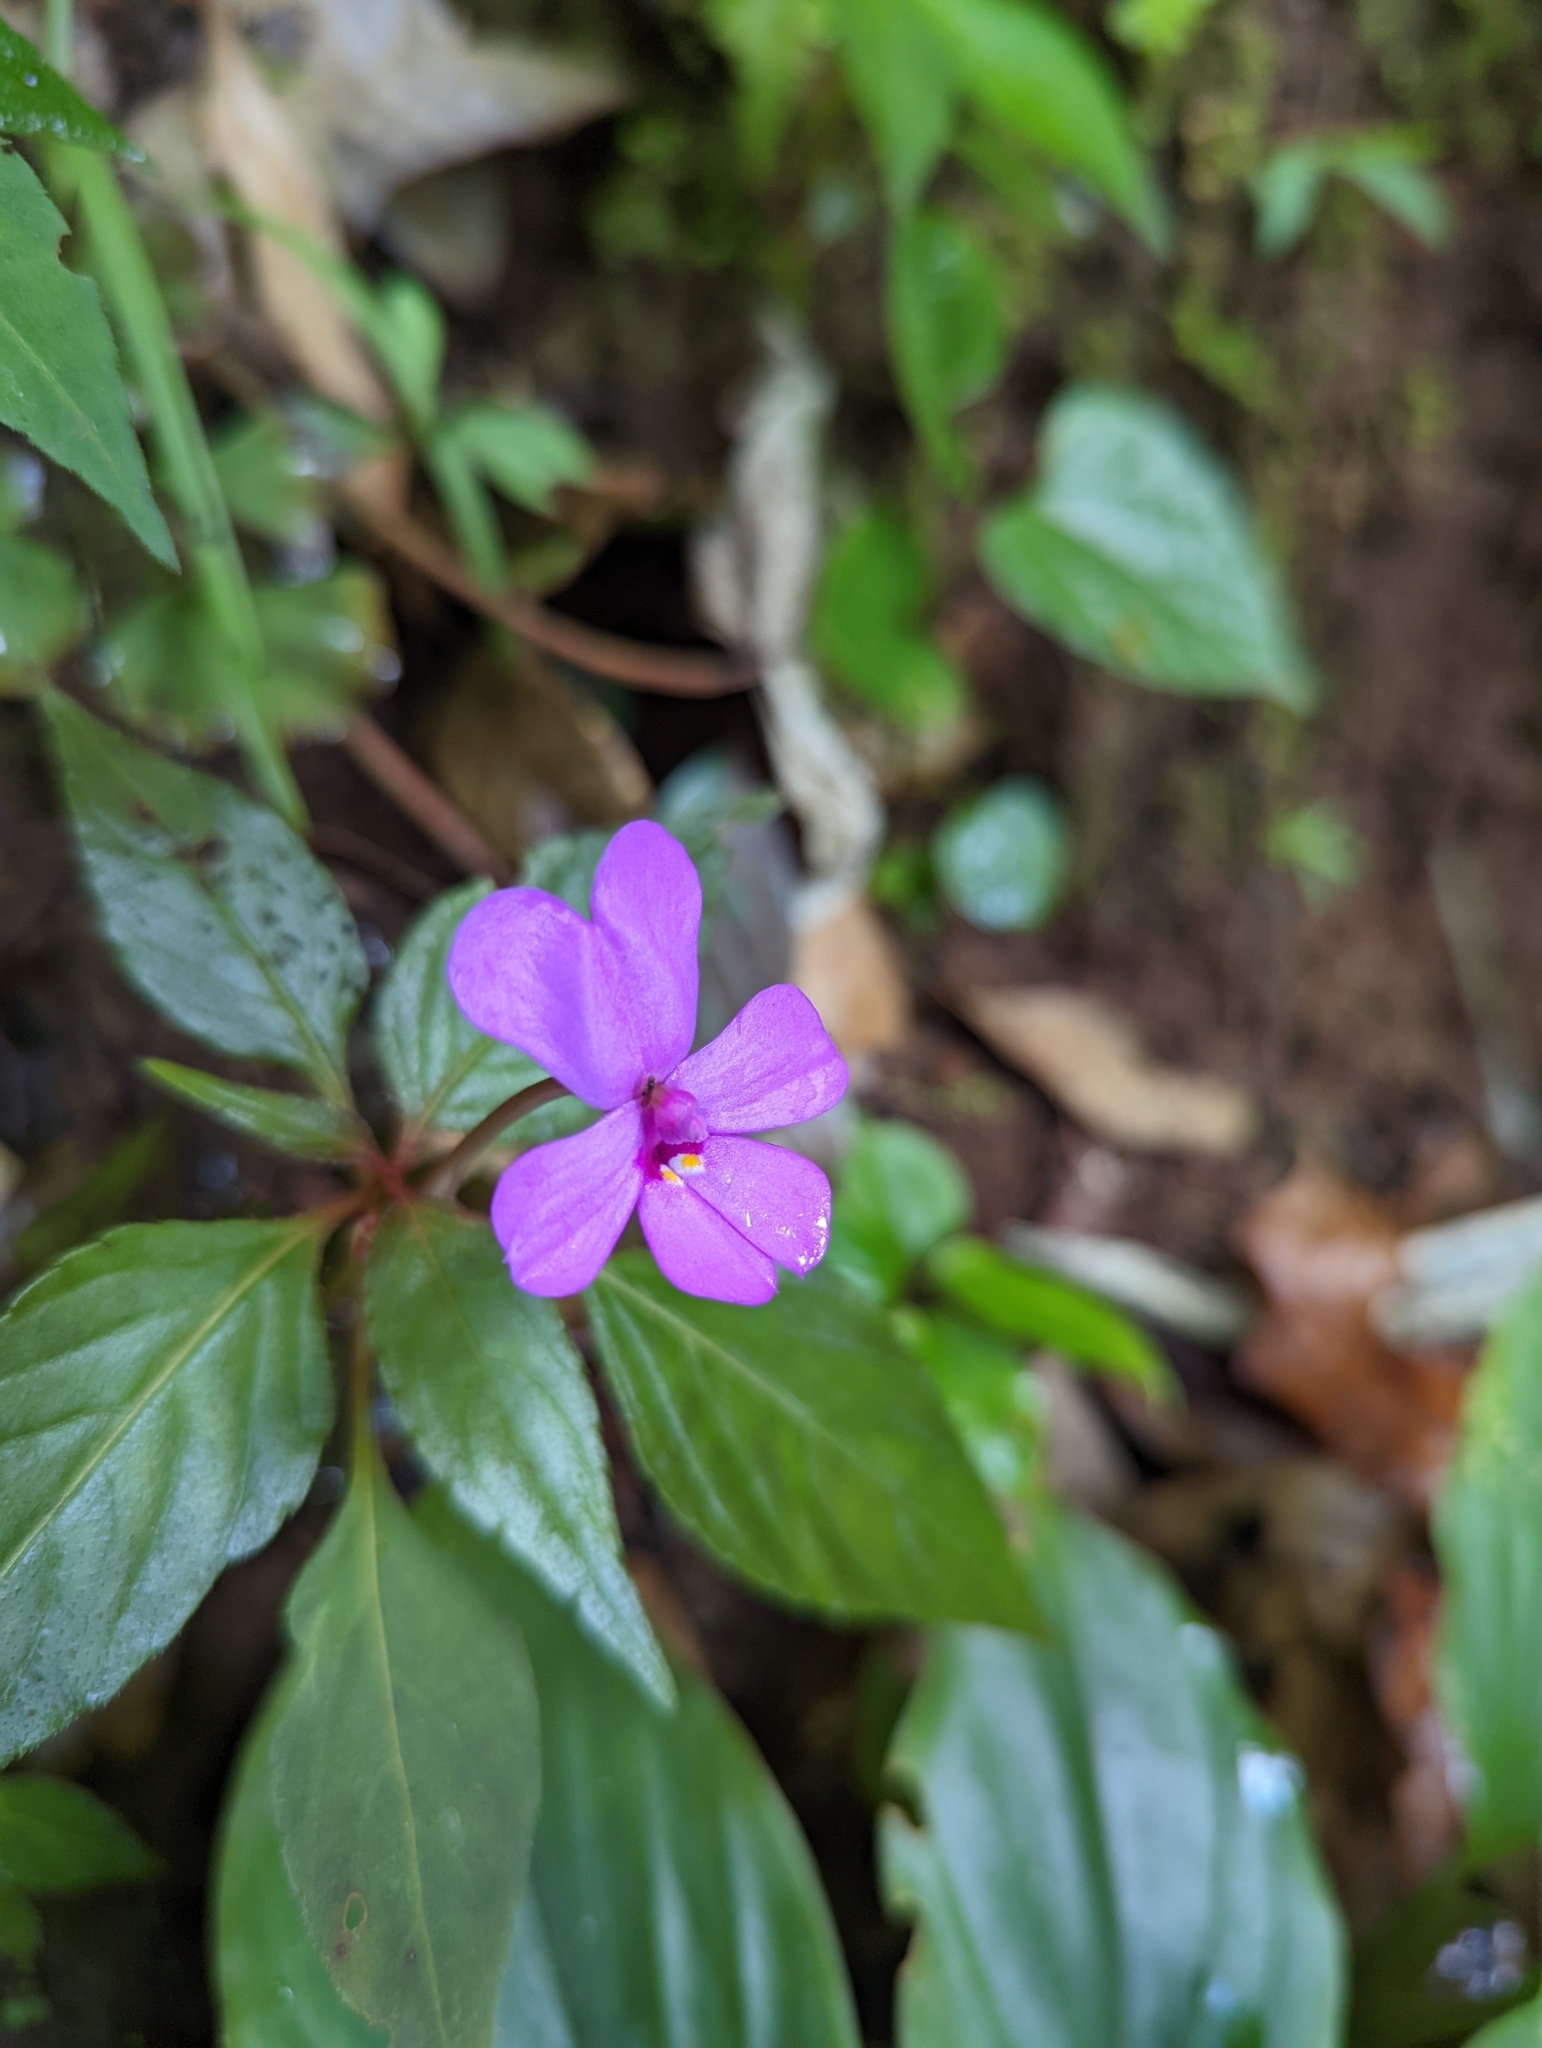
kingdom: Plantae
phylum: Tracheophyta
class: Magnoliopsida
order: Ericales
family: Balsaminaceae
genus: Impatiens
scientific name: Impatiens violiflora
